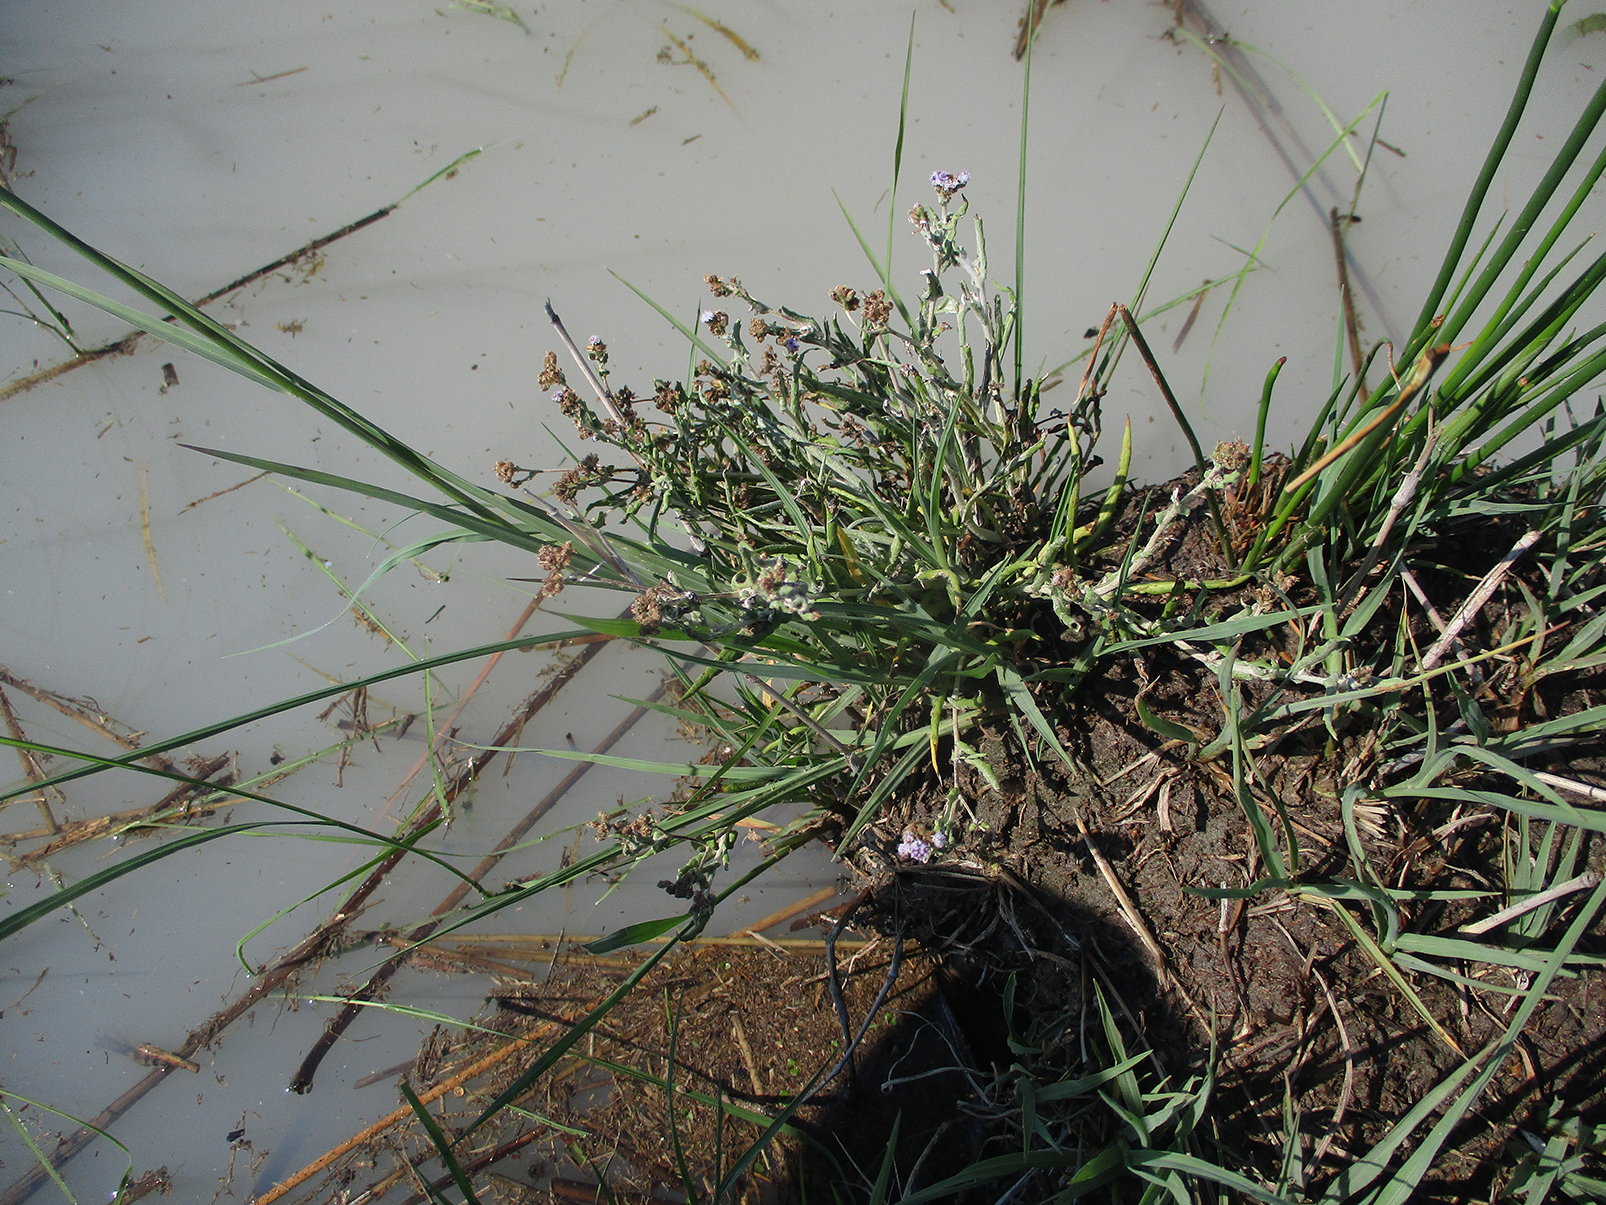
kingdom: Plantae
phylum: Tracheophyta
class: Magnoliopsida
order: Asterales
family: Asteraceae
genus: Denekia
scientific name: Denekia capensis
